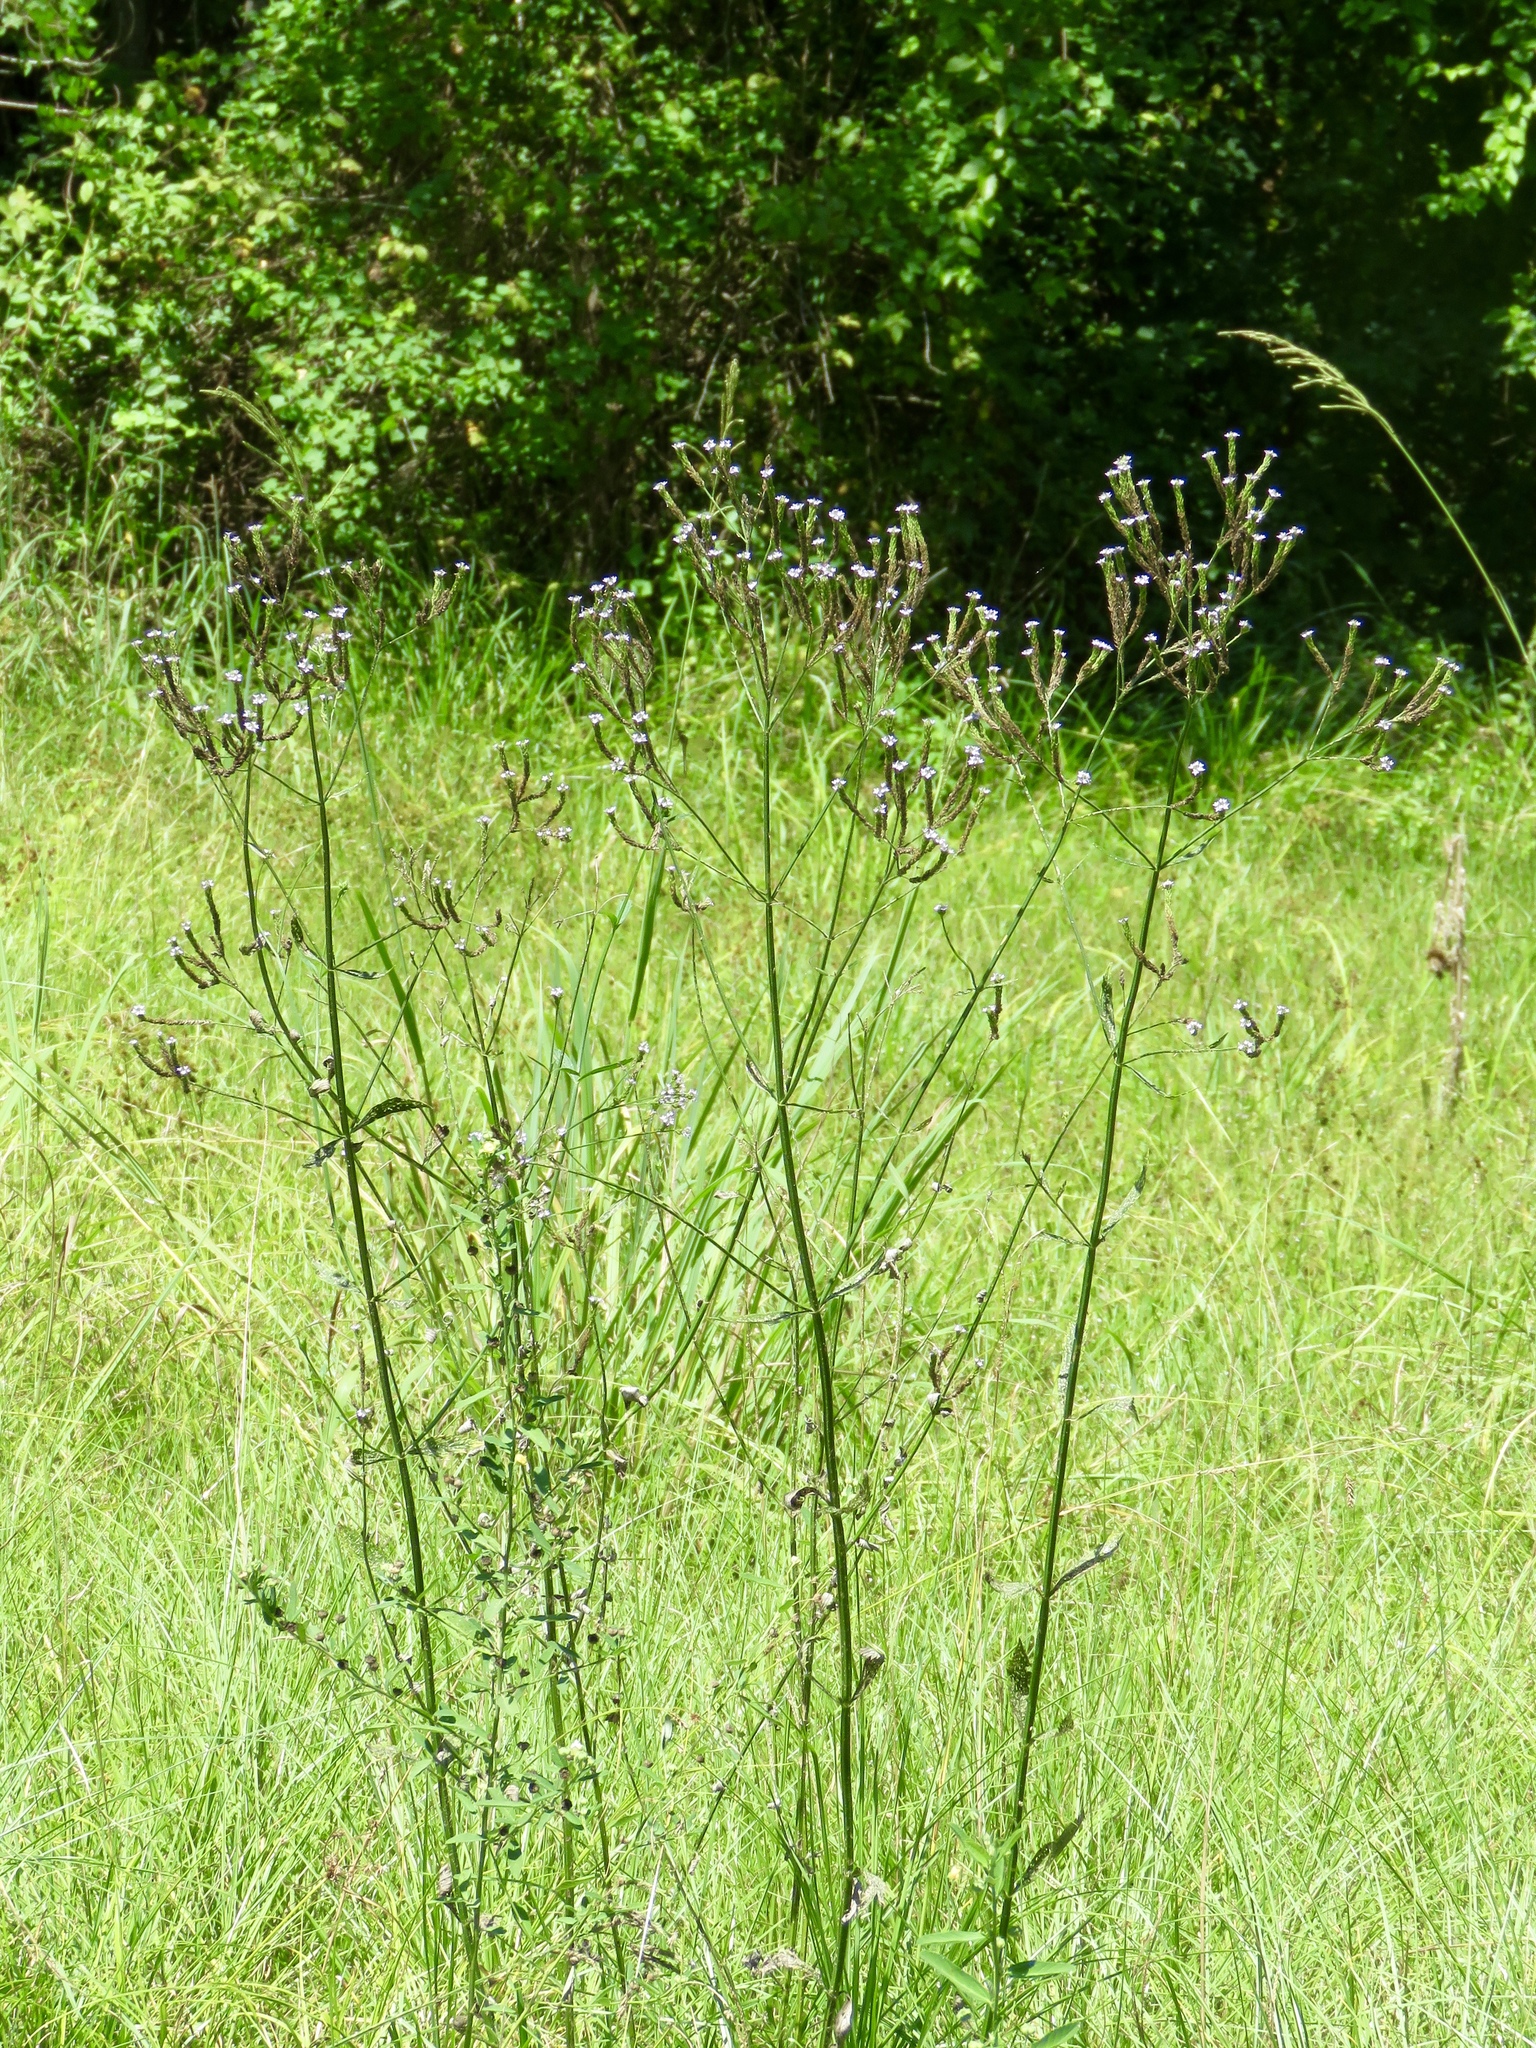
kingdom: Plantae
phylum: Tracheophyta
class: Magnoliopsida
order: Lamiales
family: Verbenaceae
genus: Verbena
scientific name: Verbena brasiliensis
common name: Brazilian vervain
